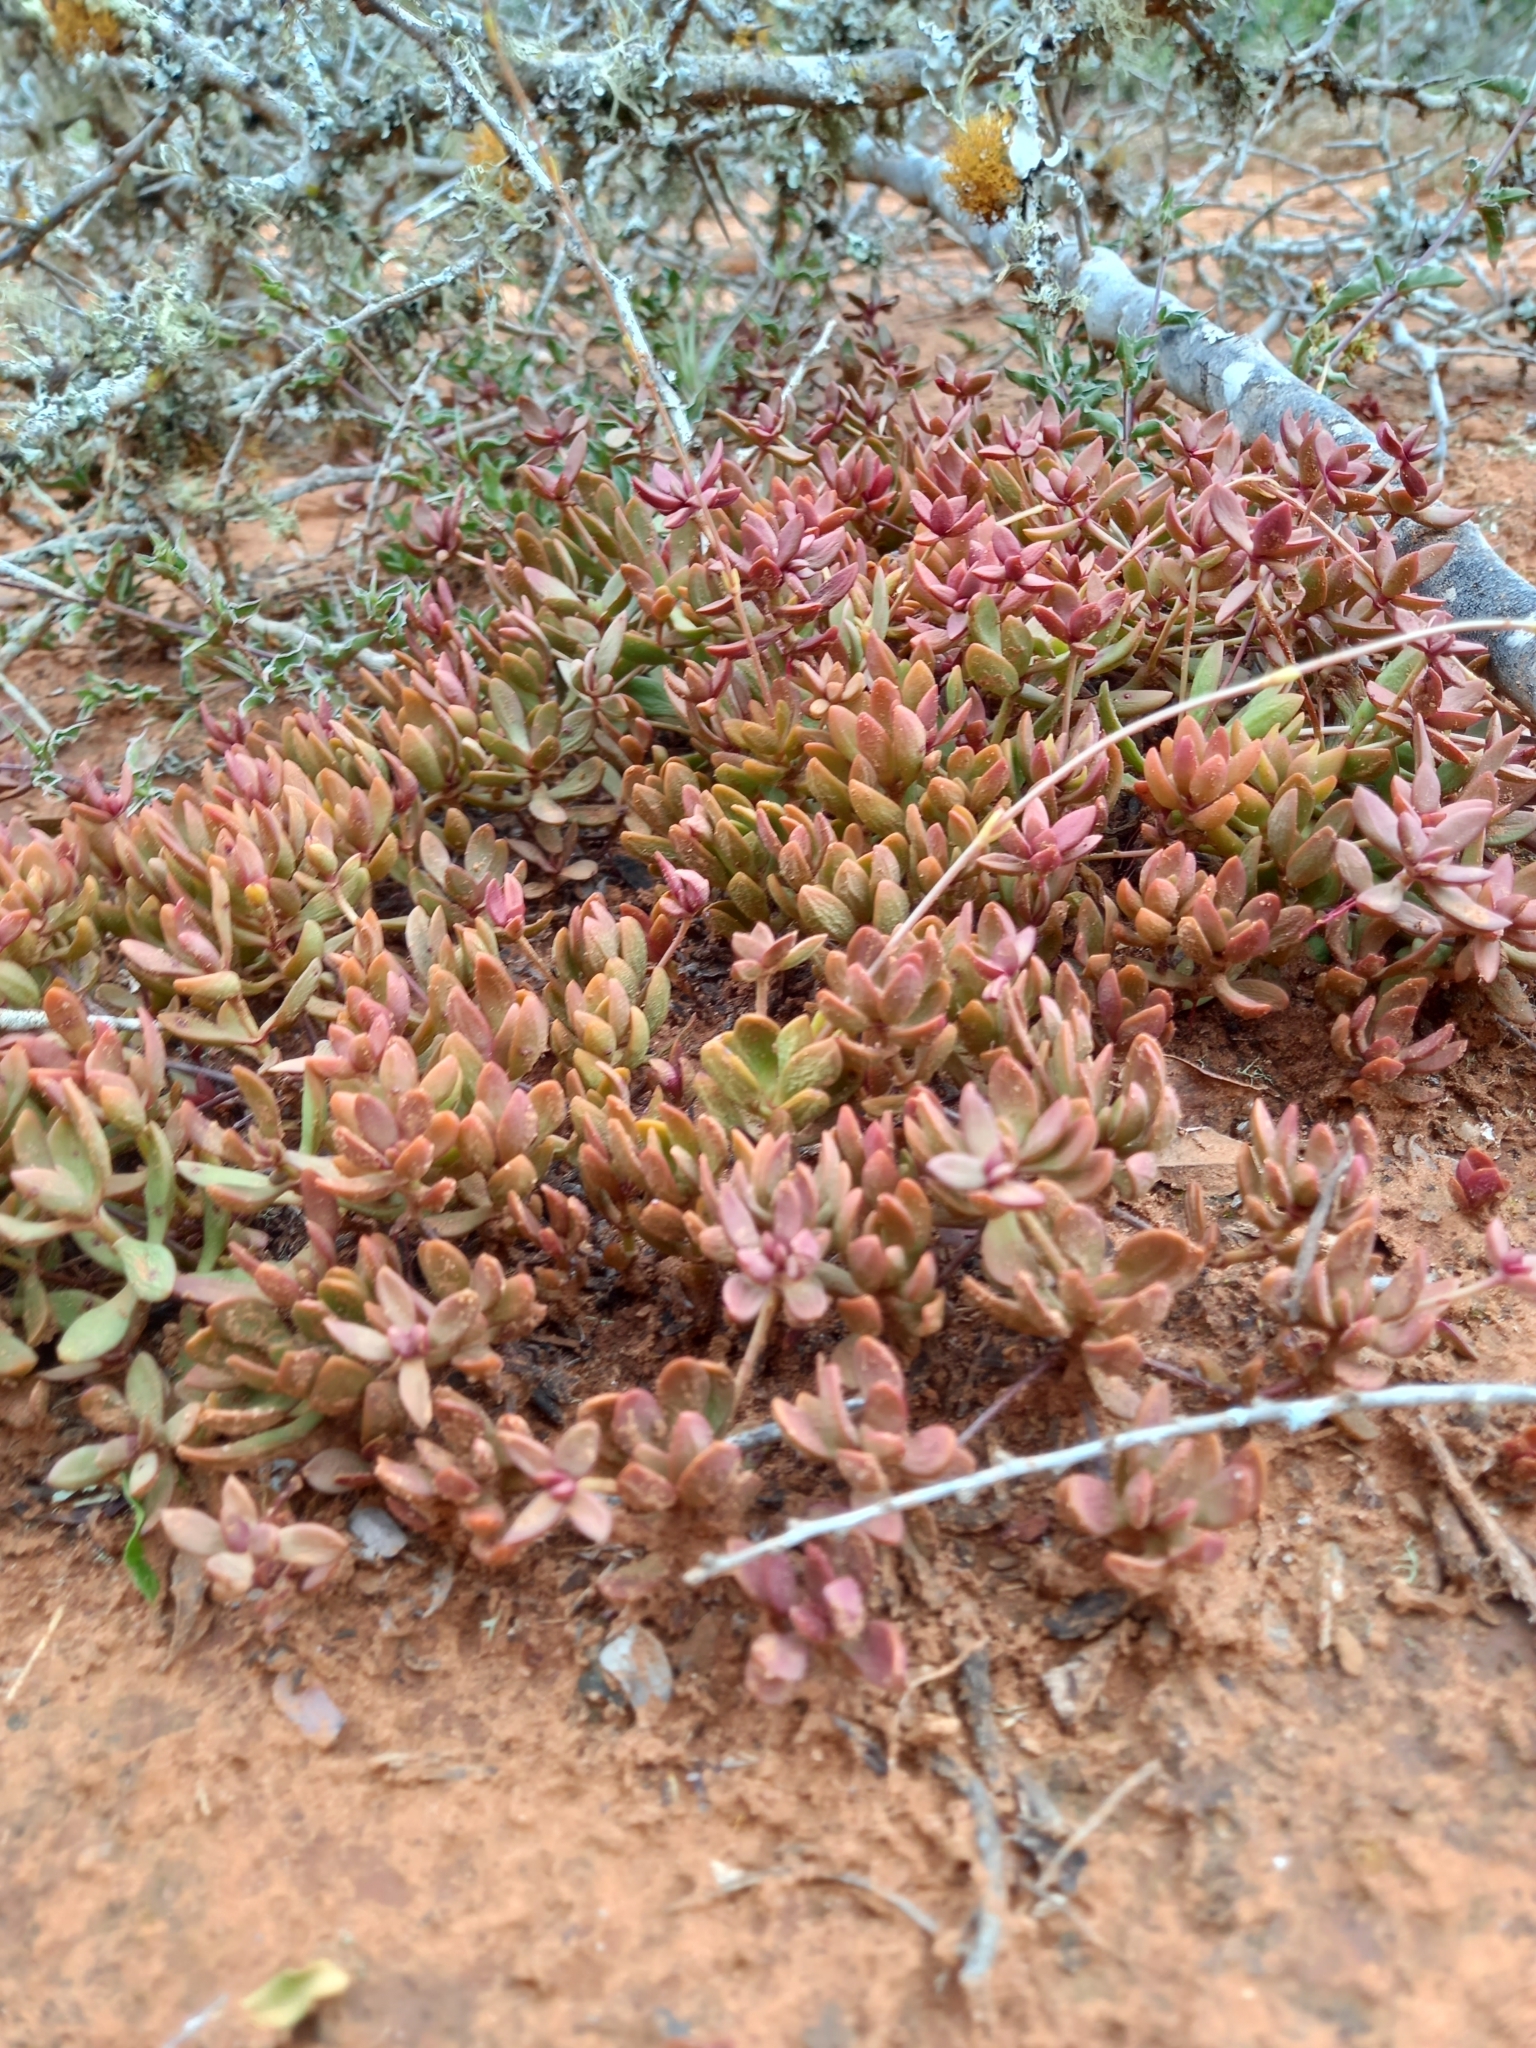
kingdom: Plantae
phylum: Tracheophyta
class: Magnoliopsida
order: Saxifragales
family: Crassulaceae
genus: Crassula
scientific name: Crassula pubescens
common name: Jersey pigmyweed
